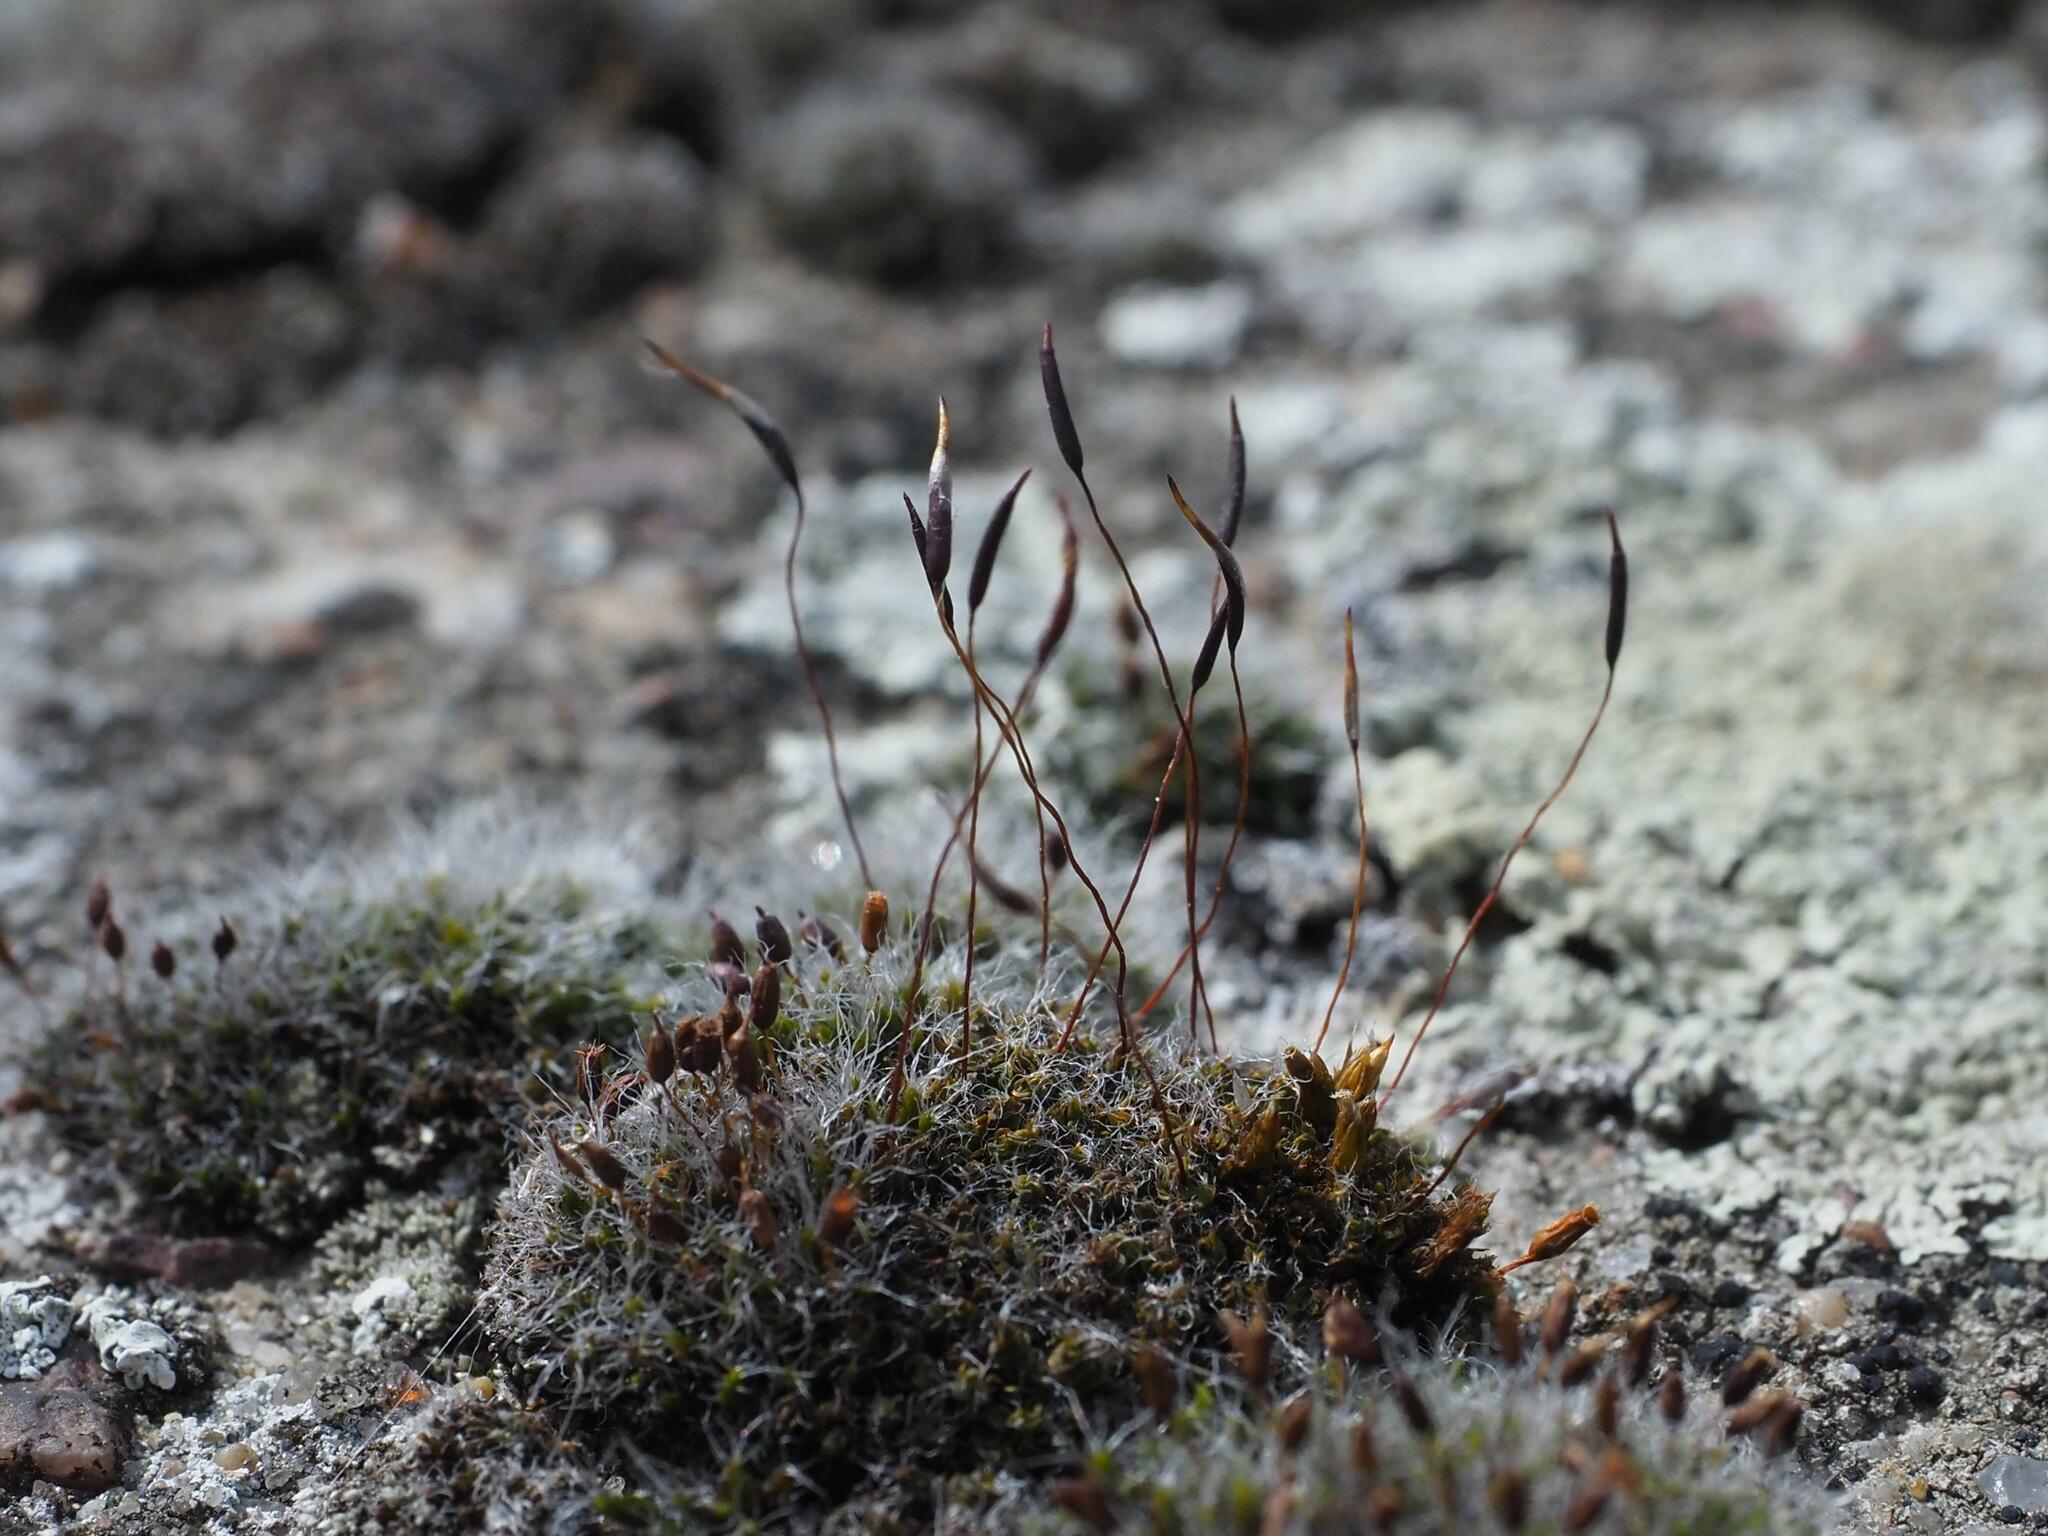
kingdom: Plantae
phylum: Bryophyta
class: Bryopsida
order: Pottiales
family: Pottiaceae
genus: Tortula
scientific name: Tortula muralis
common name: Wall screw-moss
